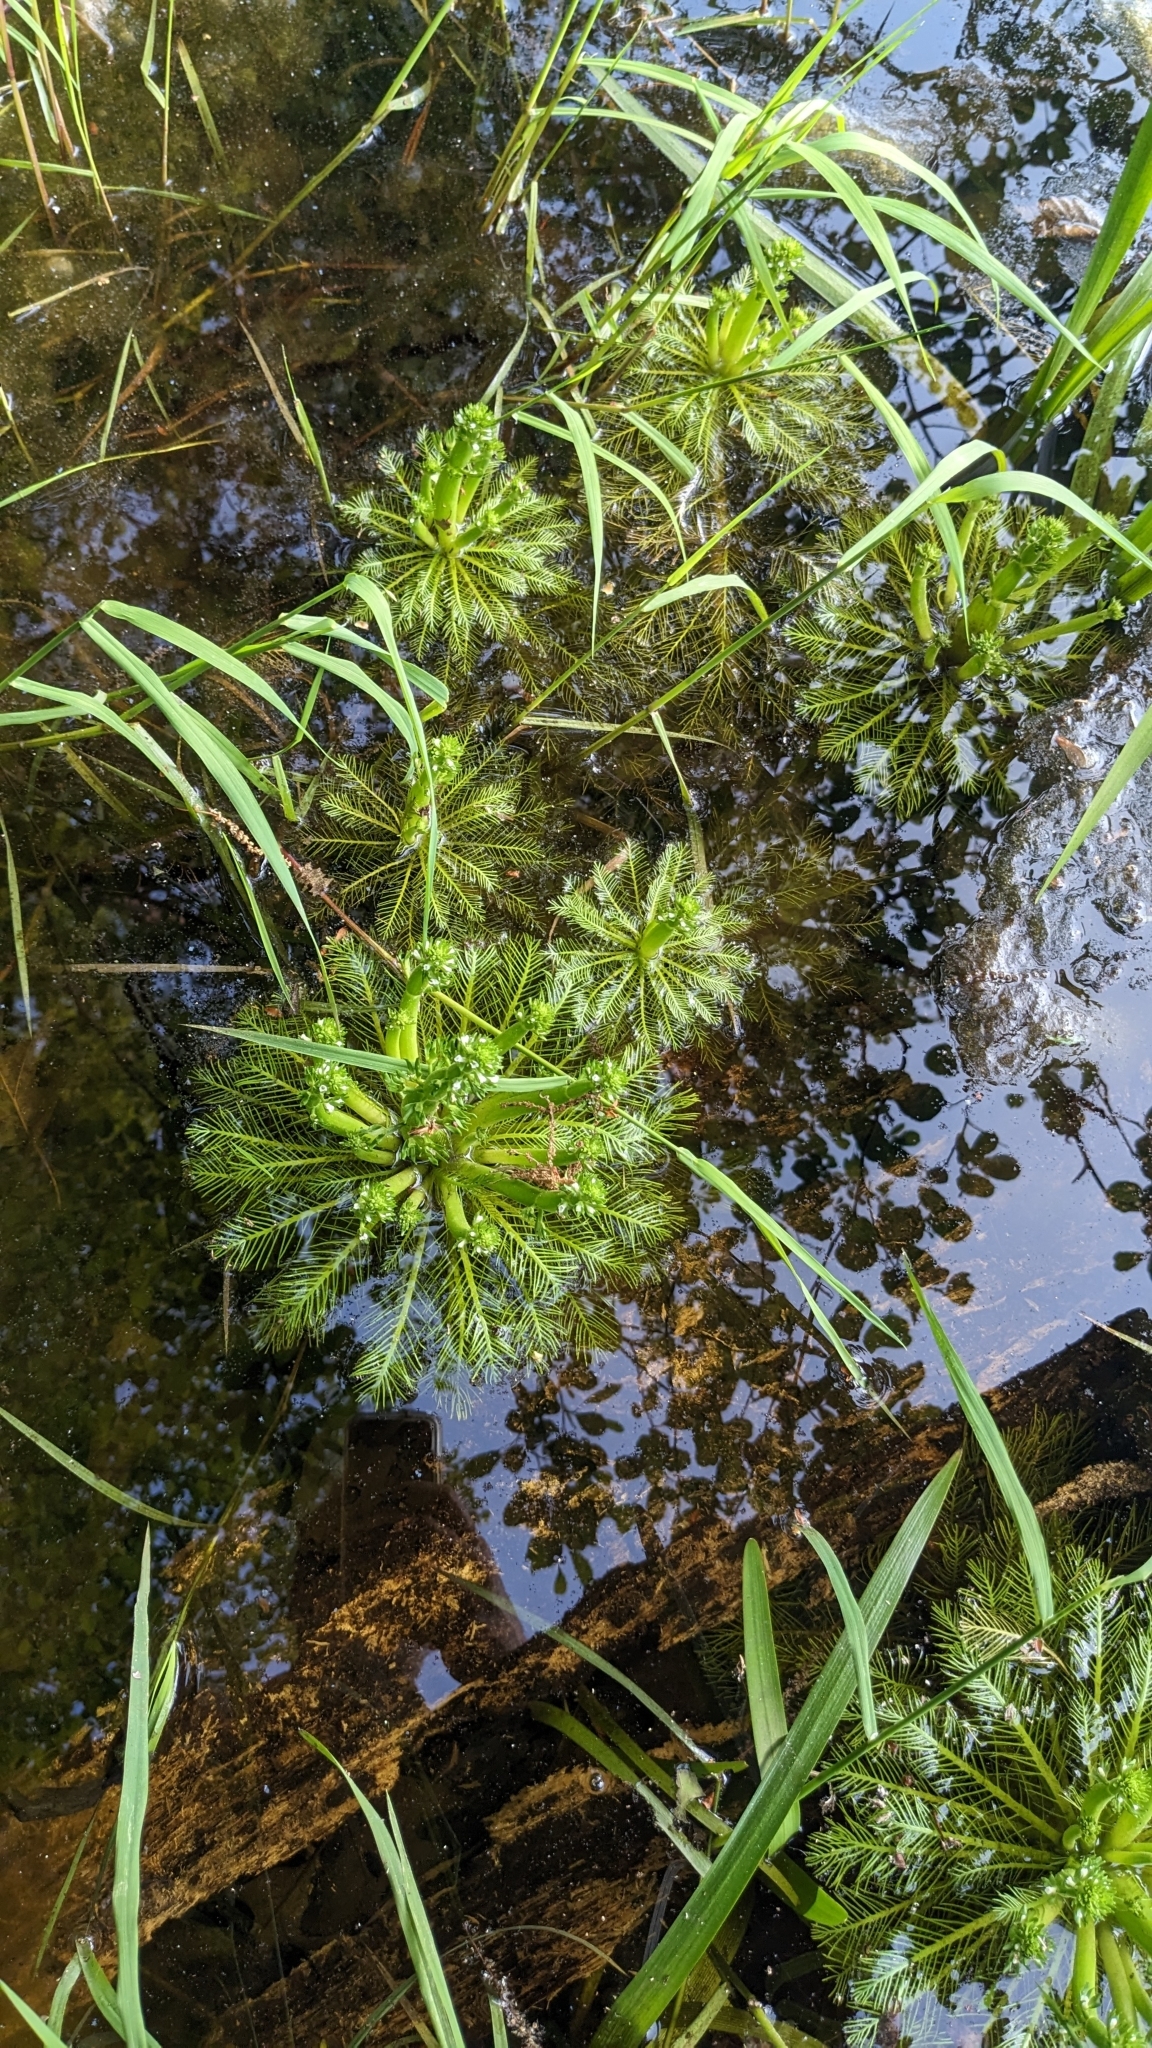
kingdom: Plantae
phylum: Tracheophyta
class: Magnoliopsida
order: Ericales
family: Primulaceae
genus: Hottonia
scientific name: Hottonia inflata
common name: American featherfoil
